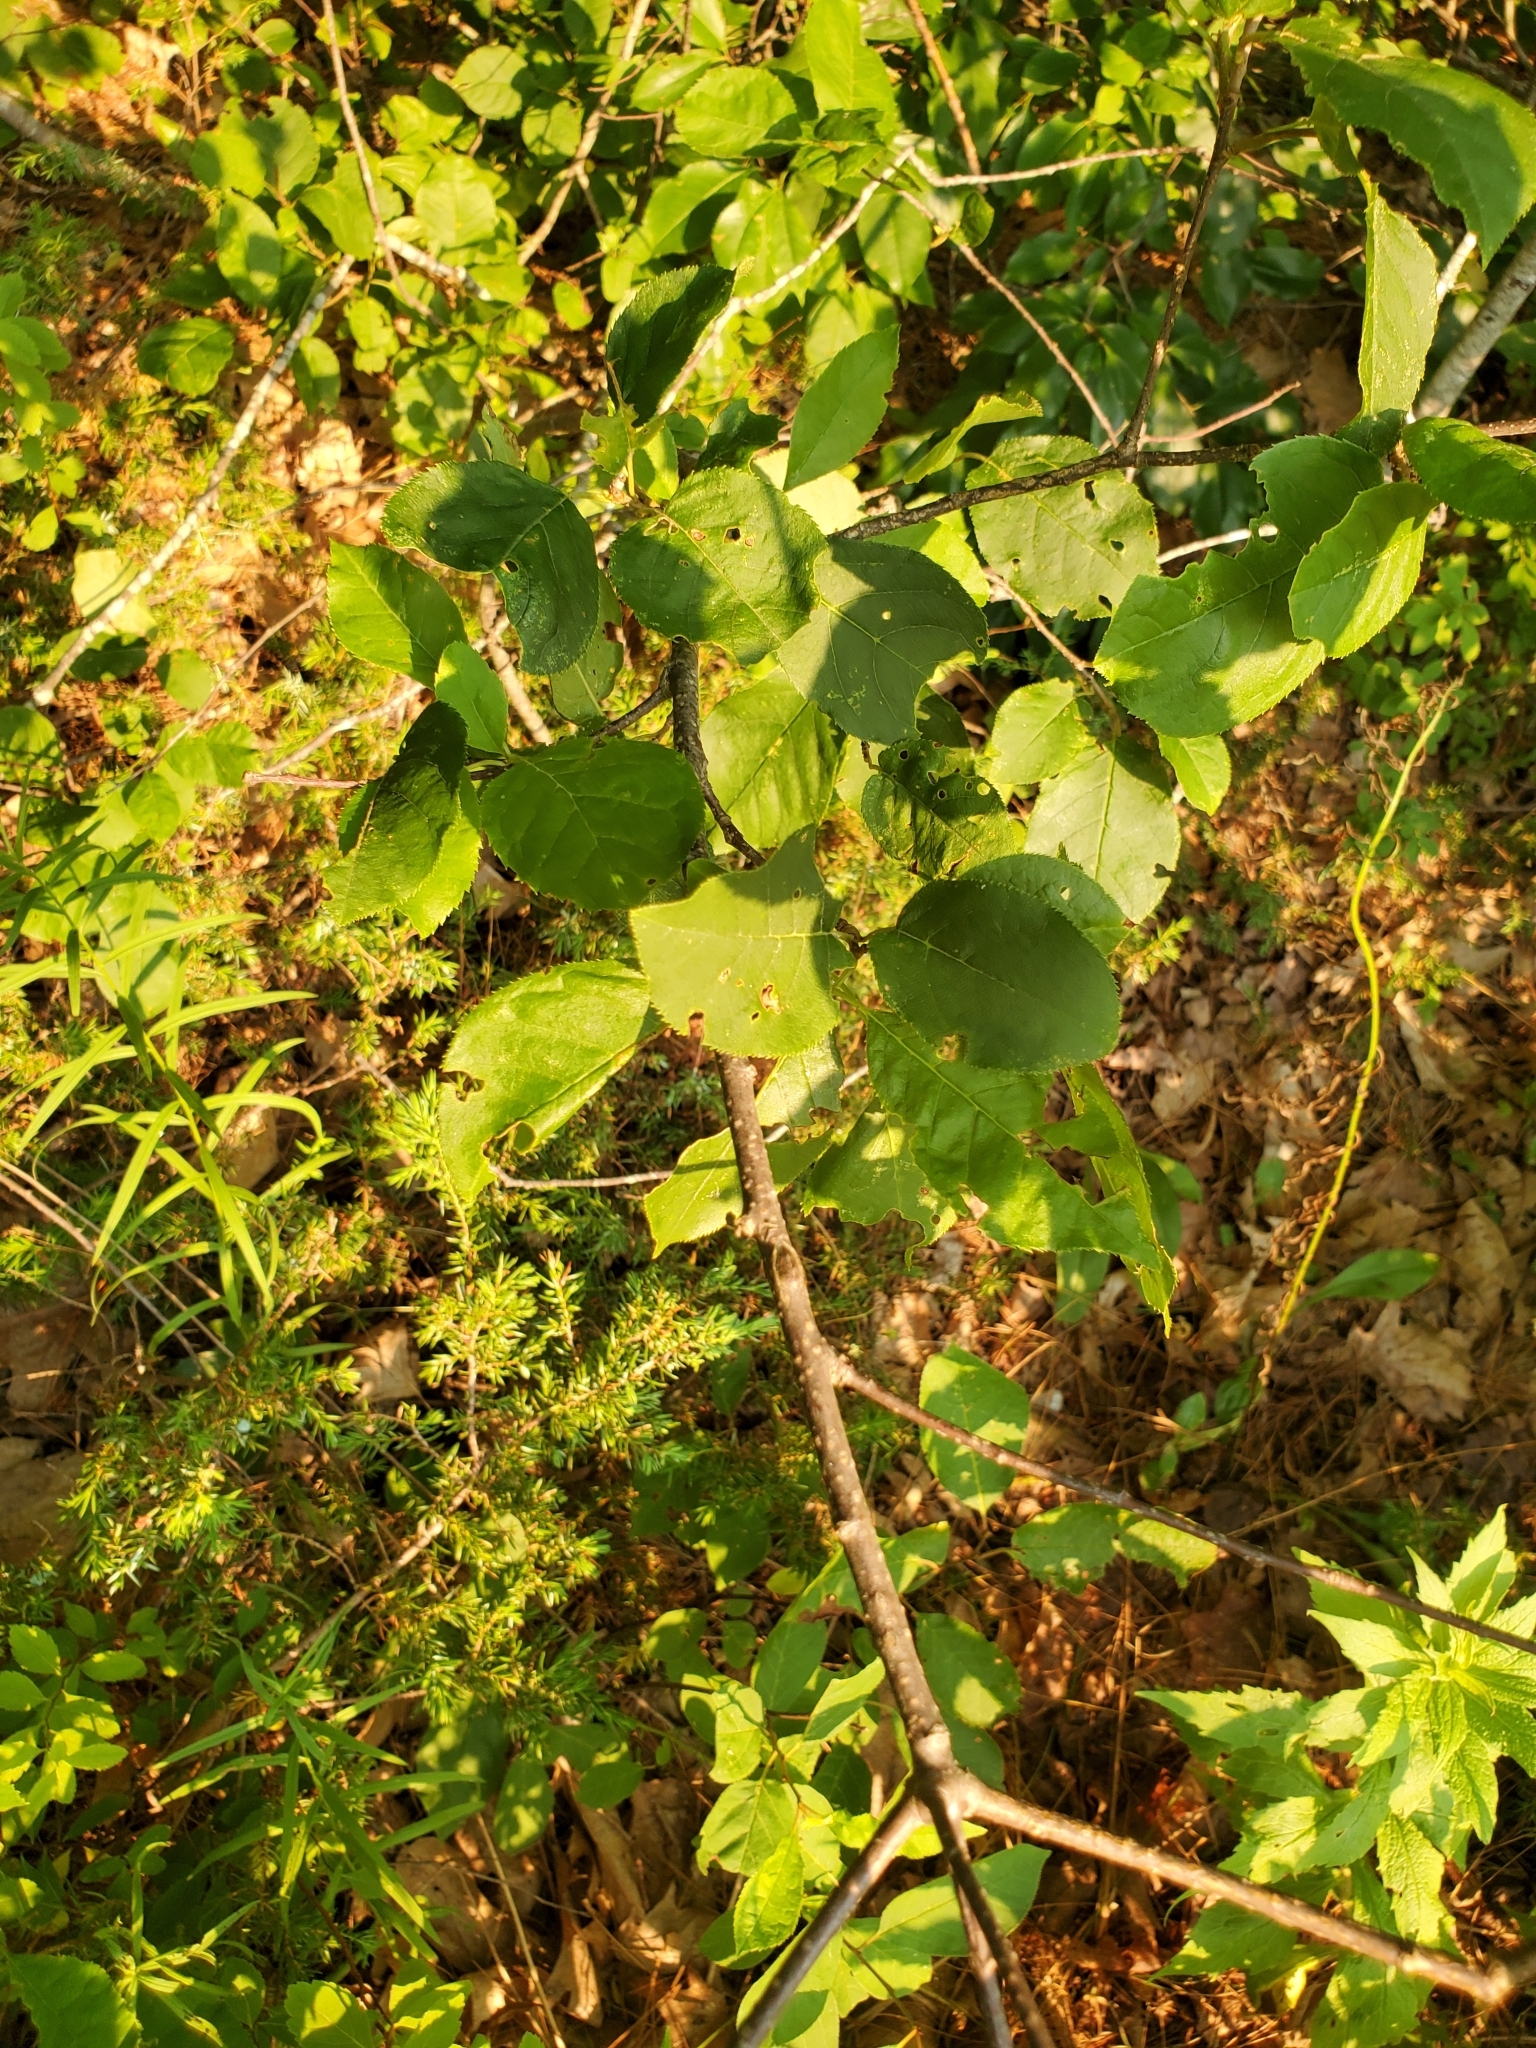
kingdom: Plantae
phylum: Tracheophyta
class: Magnoliopsida
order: Rosales
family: Rosaceae
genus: Prunus
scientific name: Prunus virginiana
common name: Chokecherry
